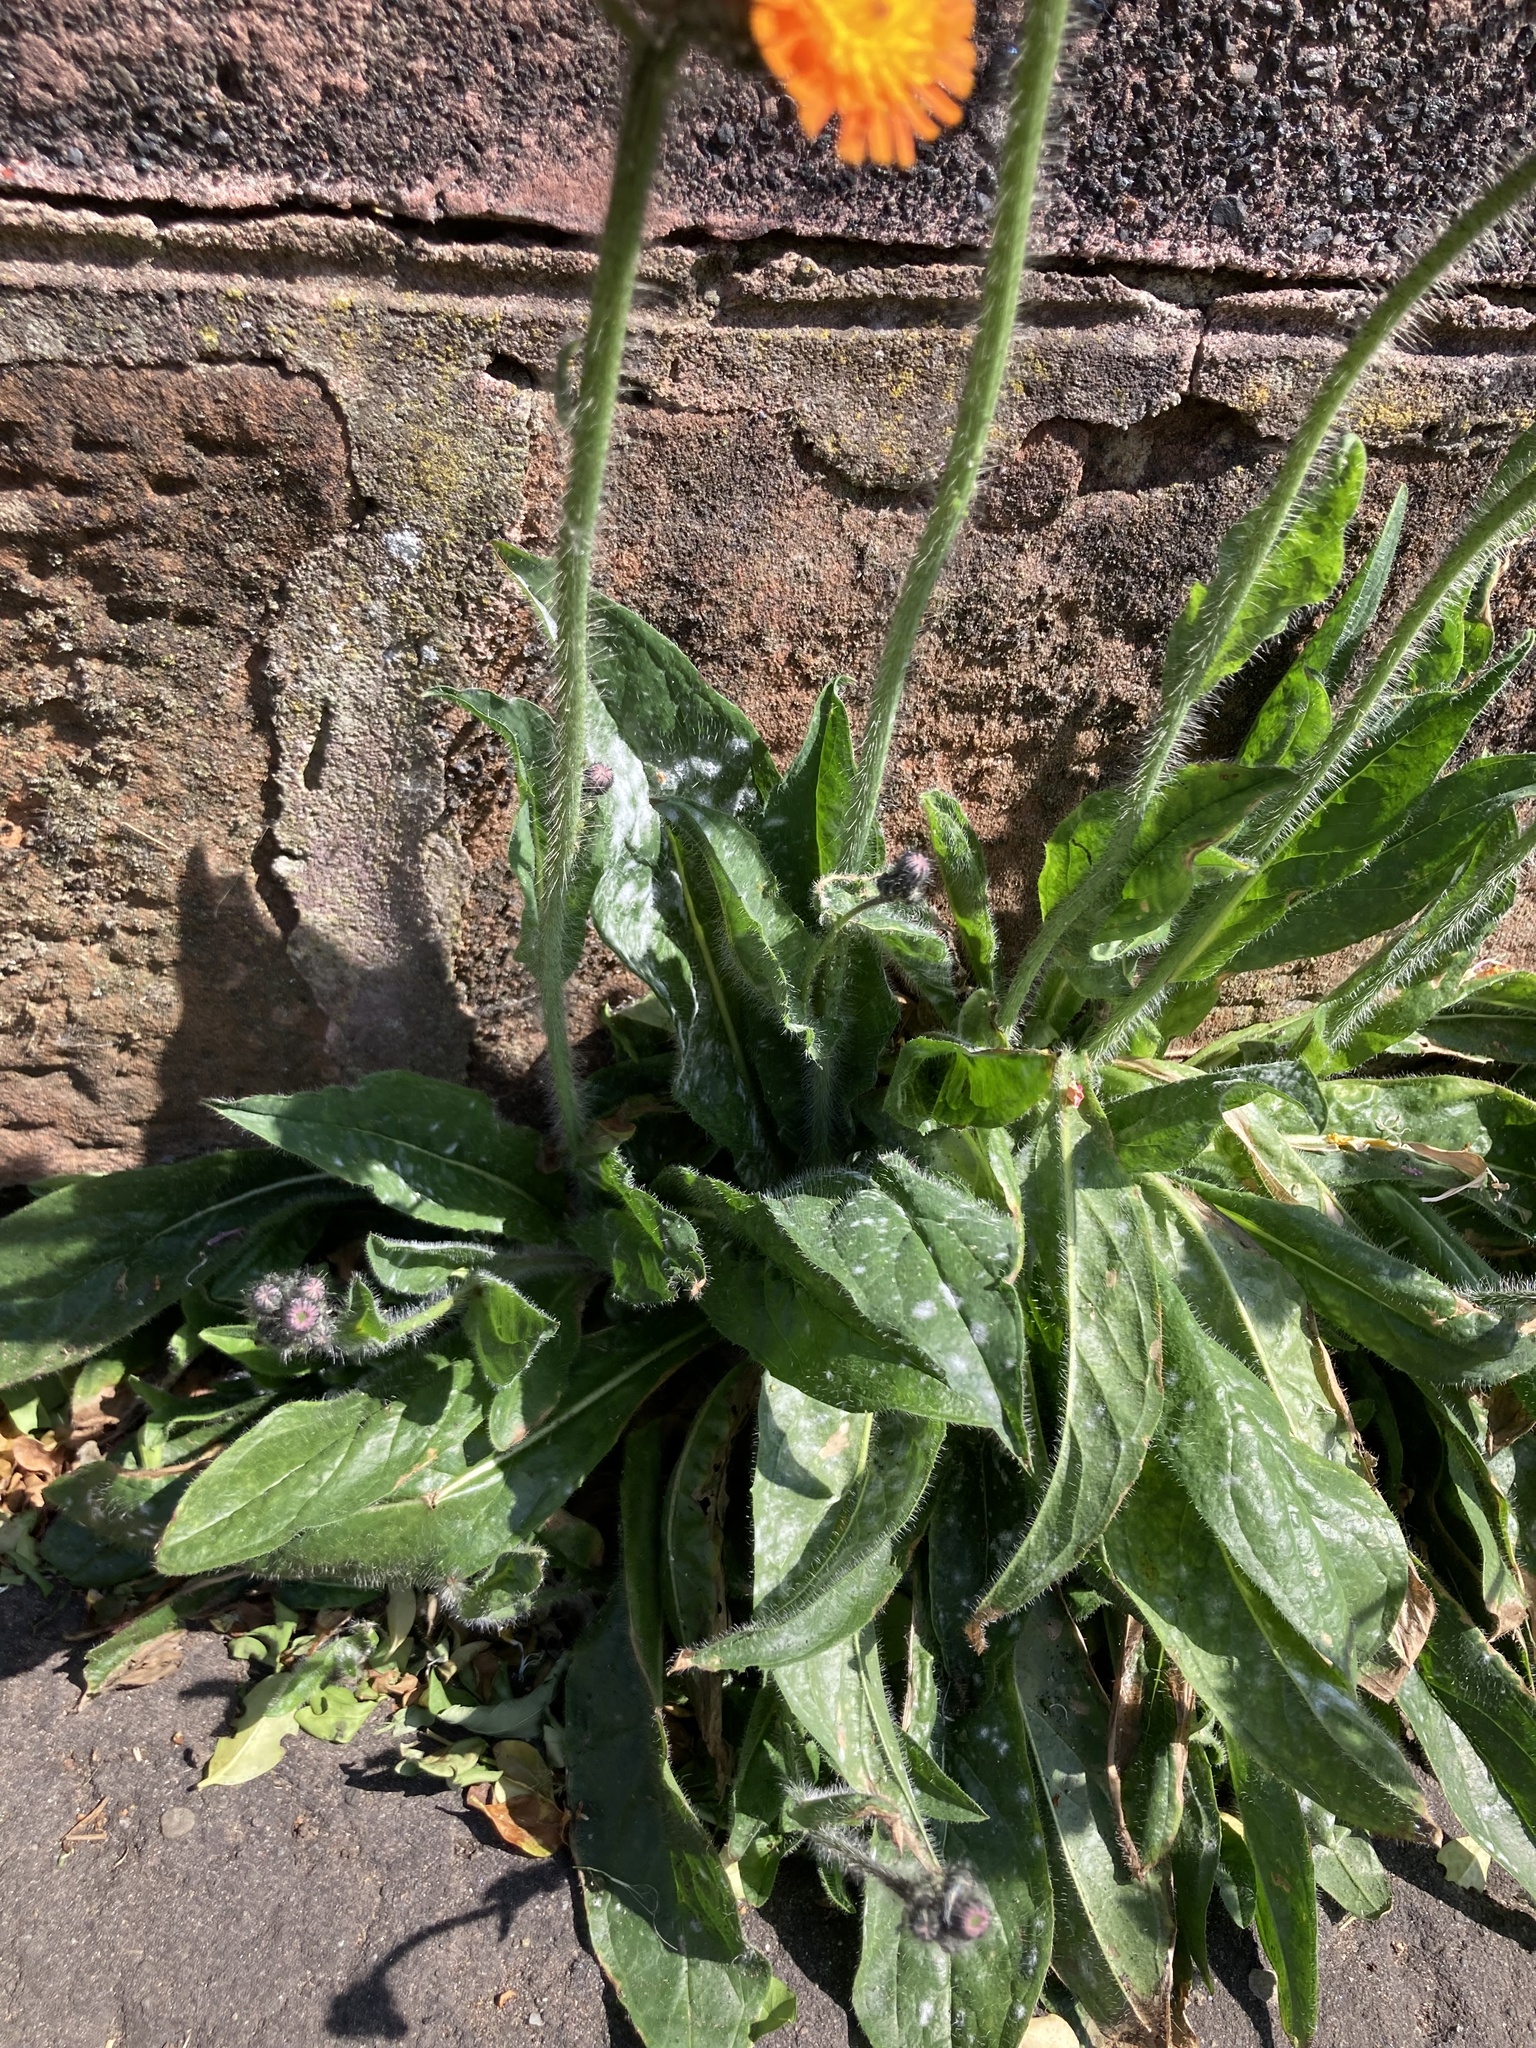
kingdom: Plantae
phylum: Tracheophyta
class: Magnoliopsida
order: Asterales
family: Asteraceae
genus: Pilosella
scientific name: Pilosella aurantiaca
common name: Fox-and-cubs
